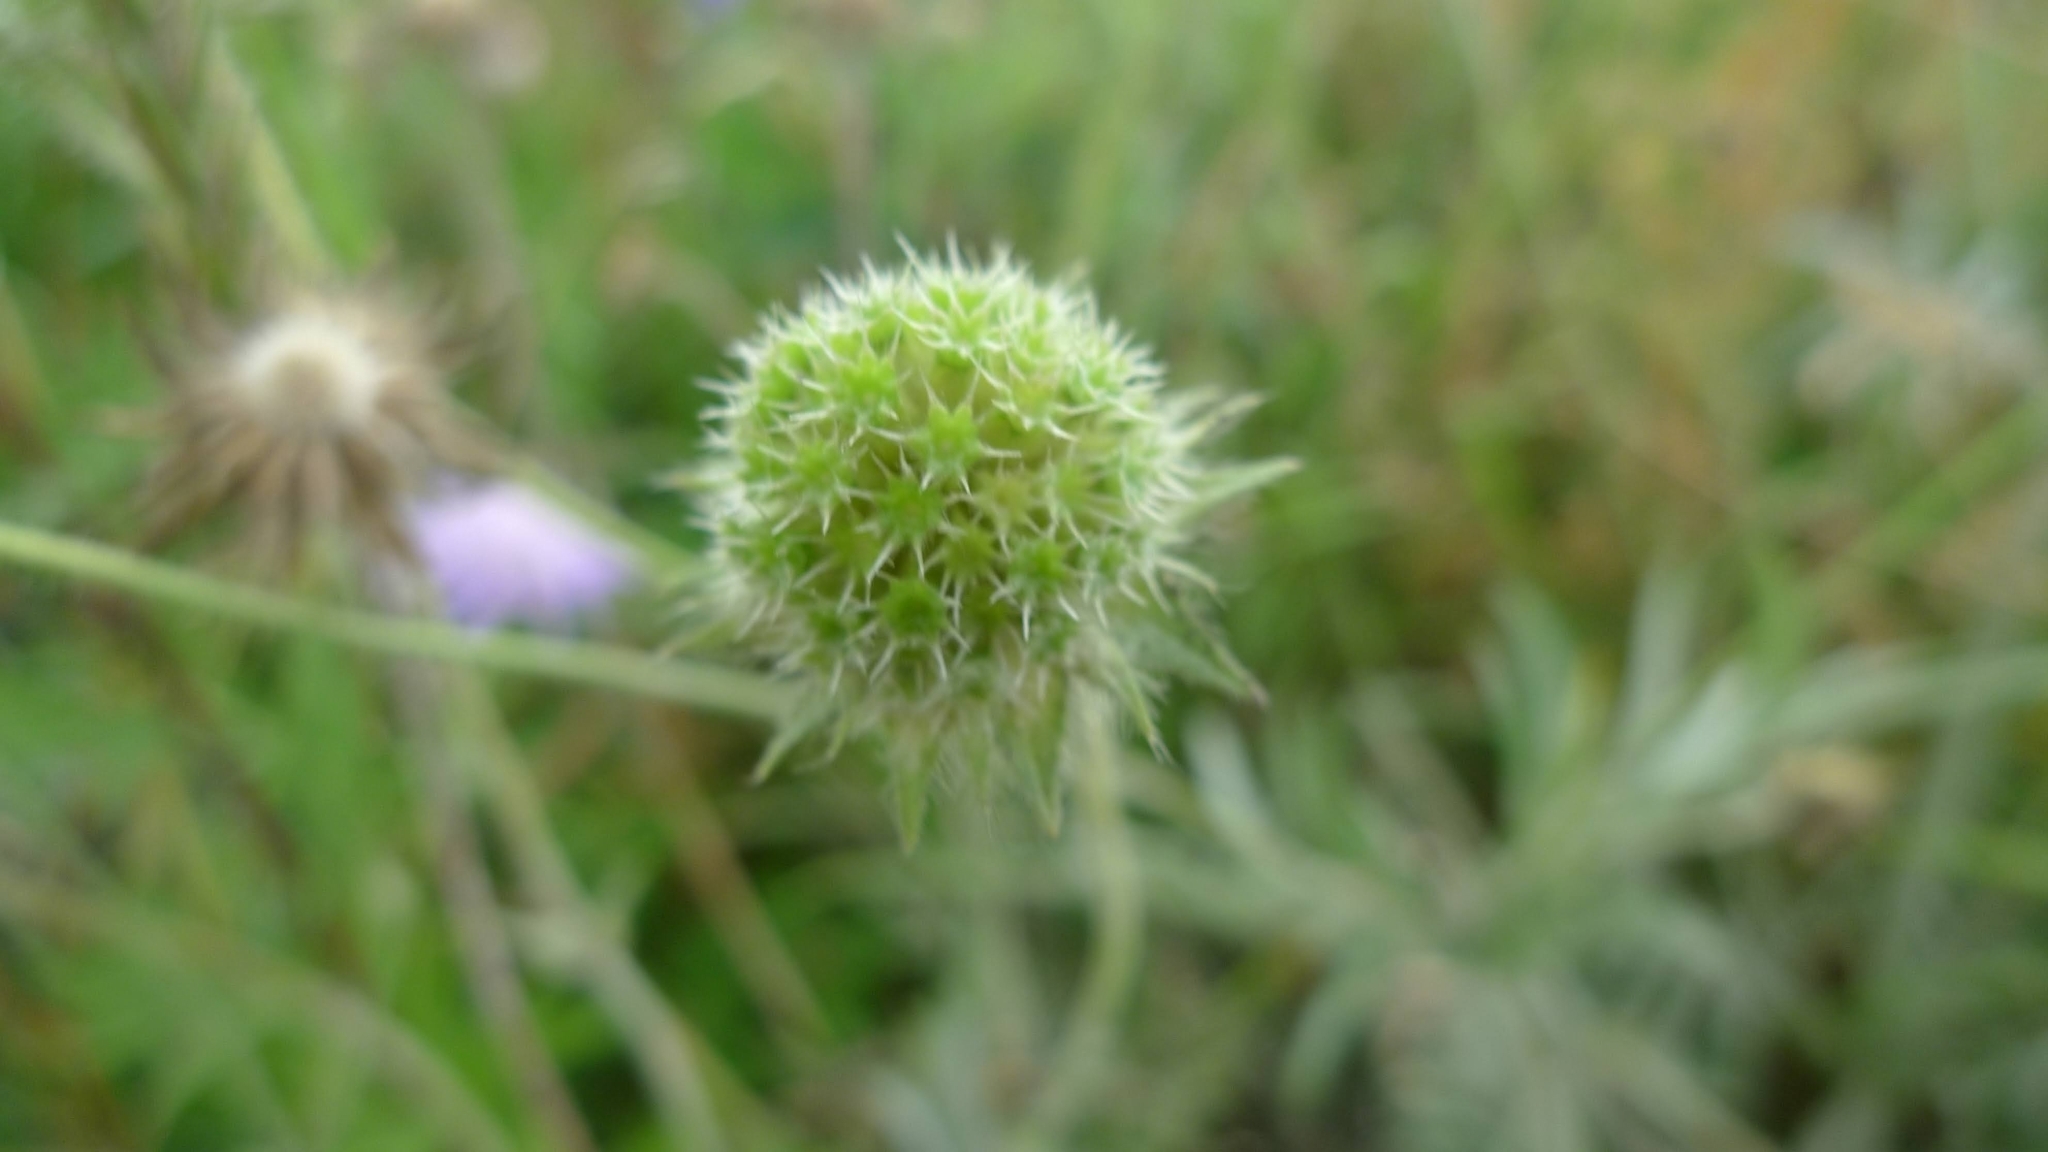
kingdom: Plantae
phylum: Tracheophyta
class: Magnoliopsida
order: Dipsacales
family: Caprifoliaceae
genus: Knautia
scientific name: Knautia arvensis
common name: Field scabiosa
